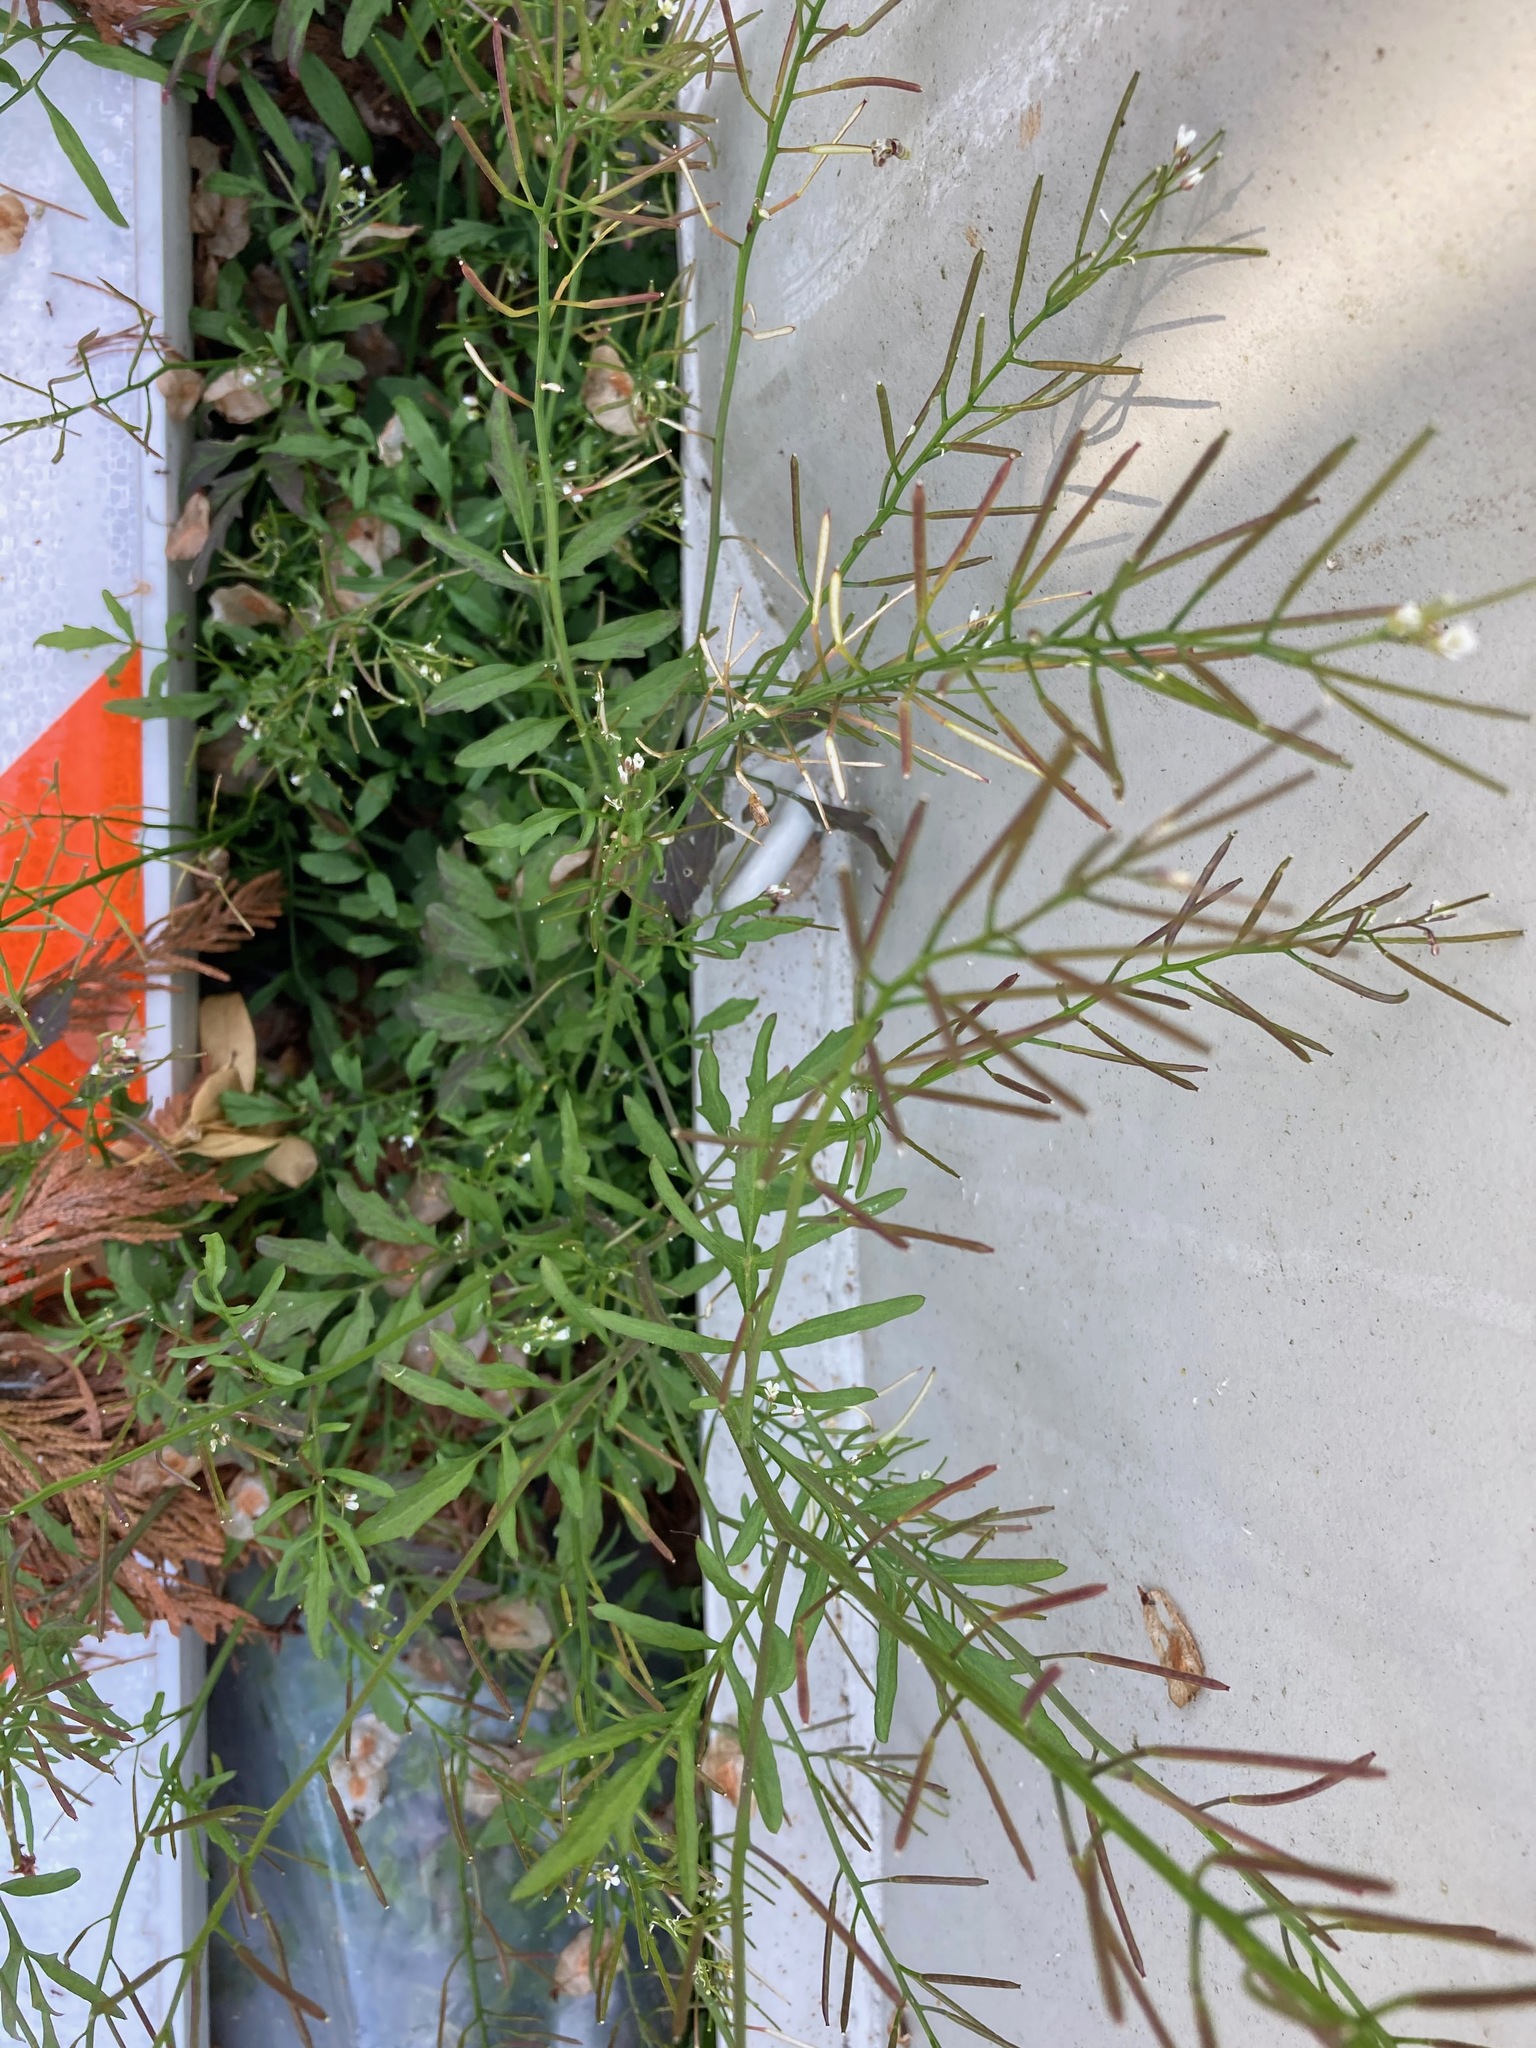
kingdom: Plantae
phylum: Tracheophyta
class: Magnoliopsida
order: Brassicales
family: Brassicaceae
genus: Cardamine
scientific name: Cardamine flexuosa
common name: Woodland bittercress
